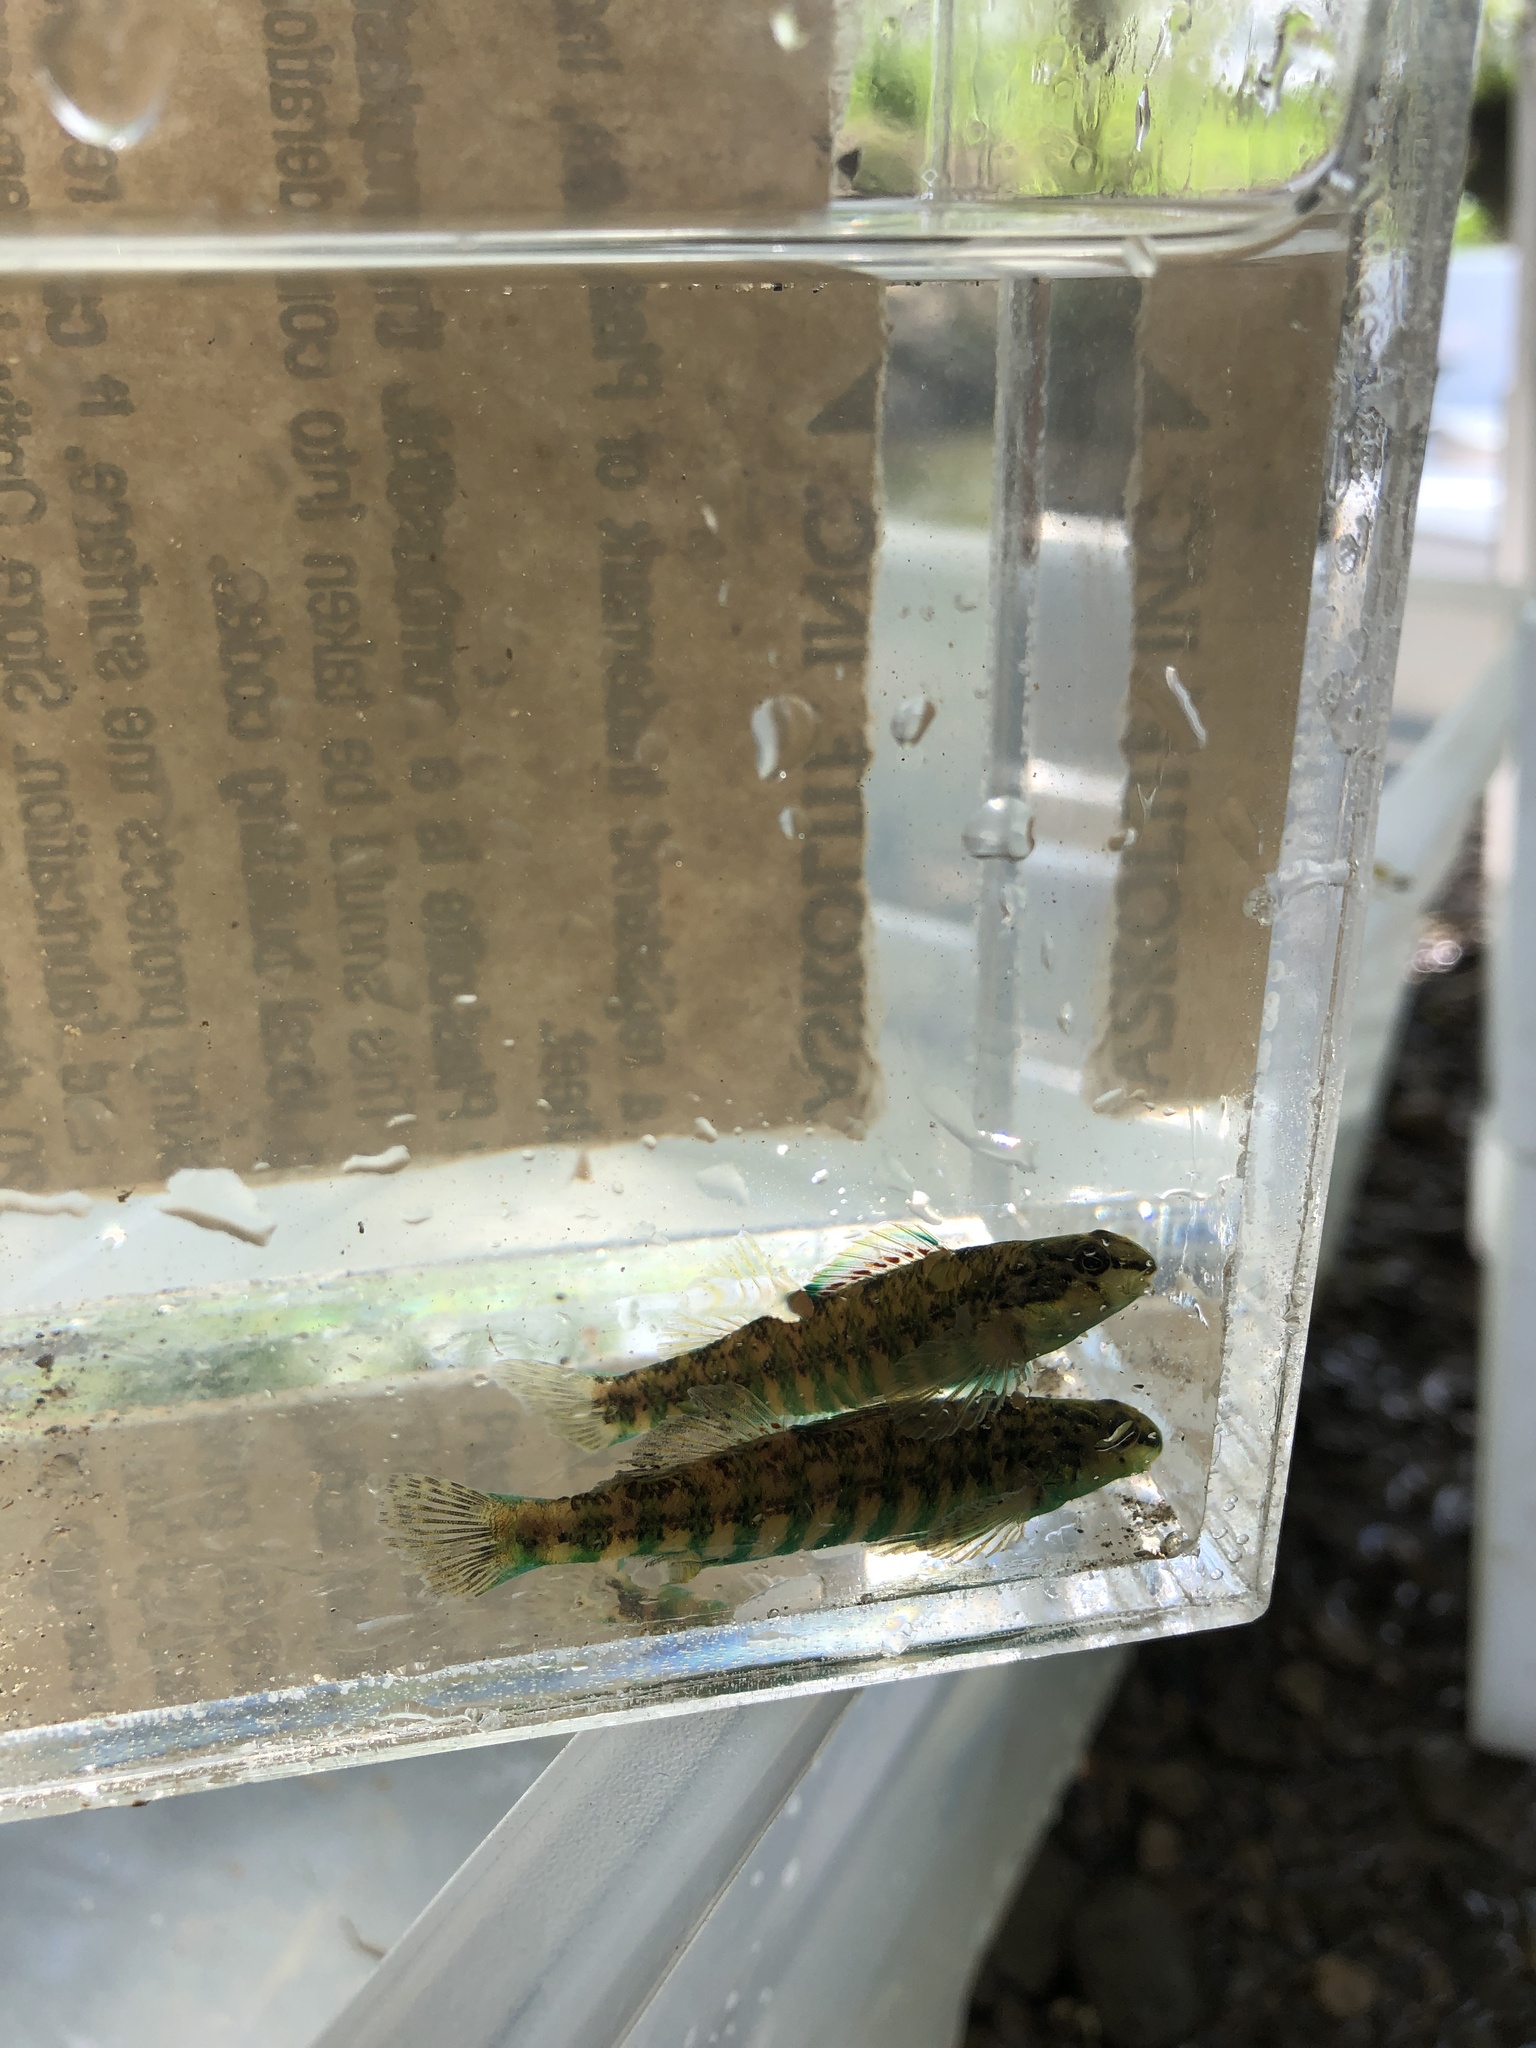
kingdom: Animalia
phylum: Chordata
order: Perciformes
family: Percidae
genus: Etheostoma
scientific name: Etheostoma zonale
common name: Banded darter
